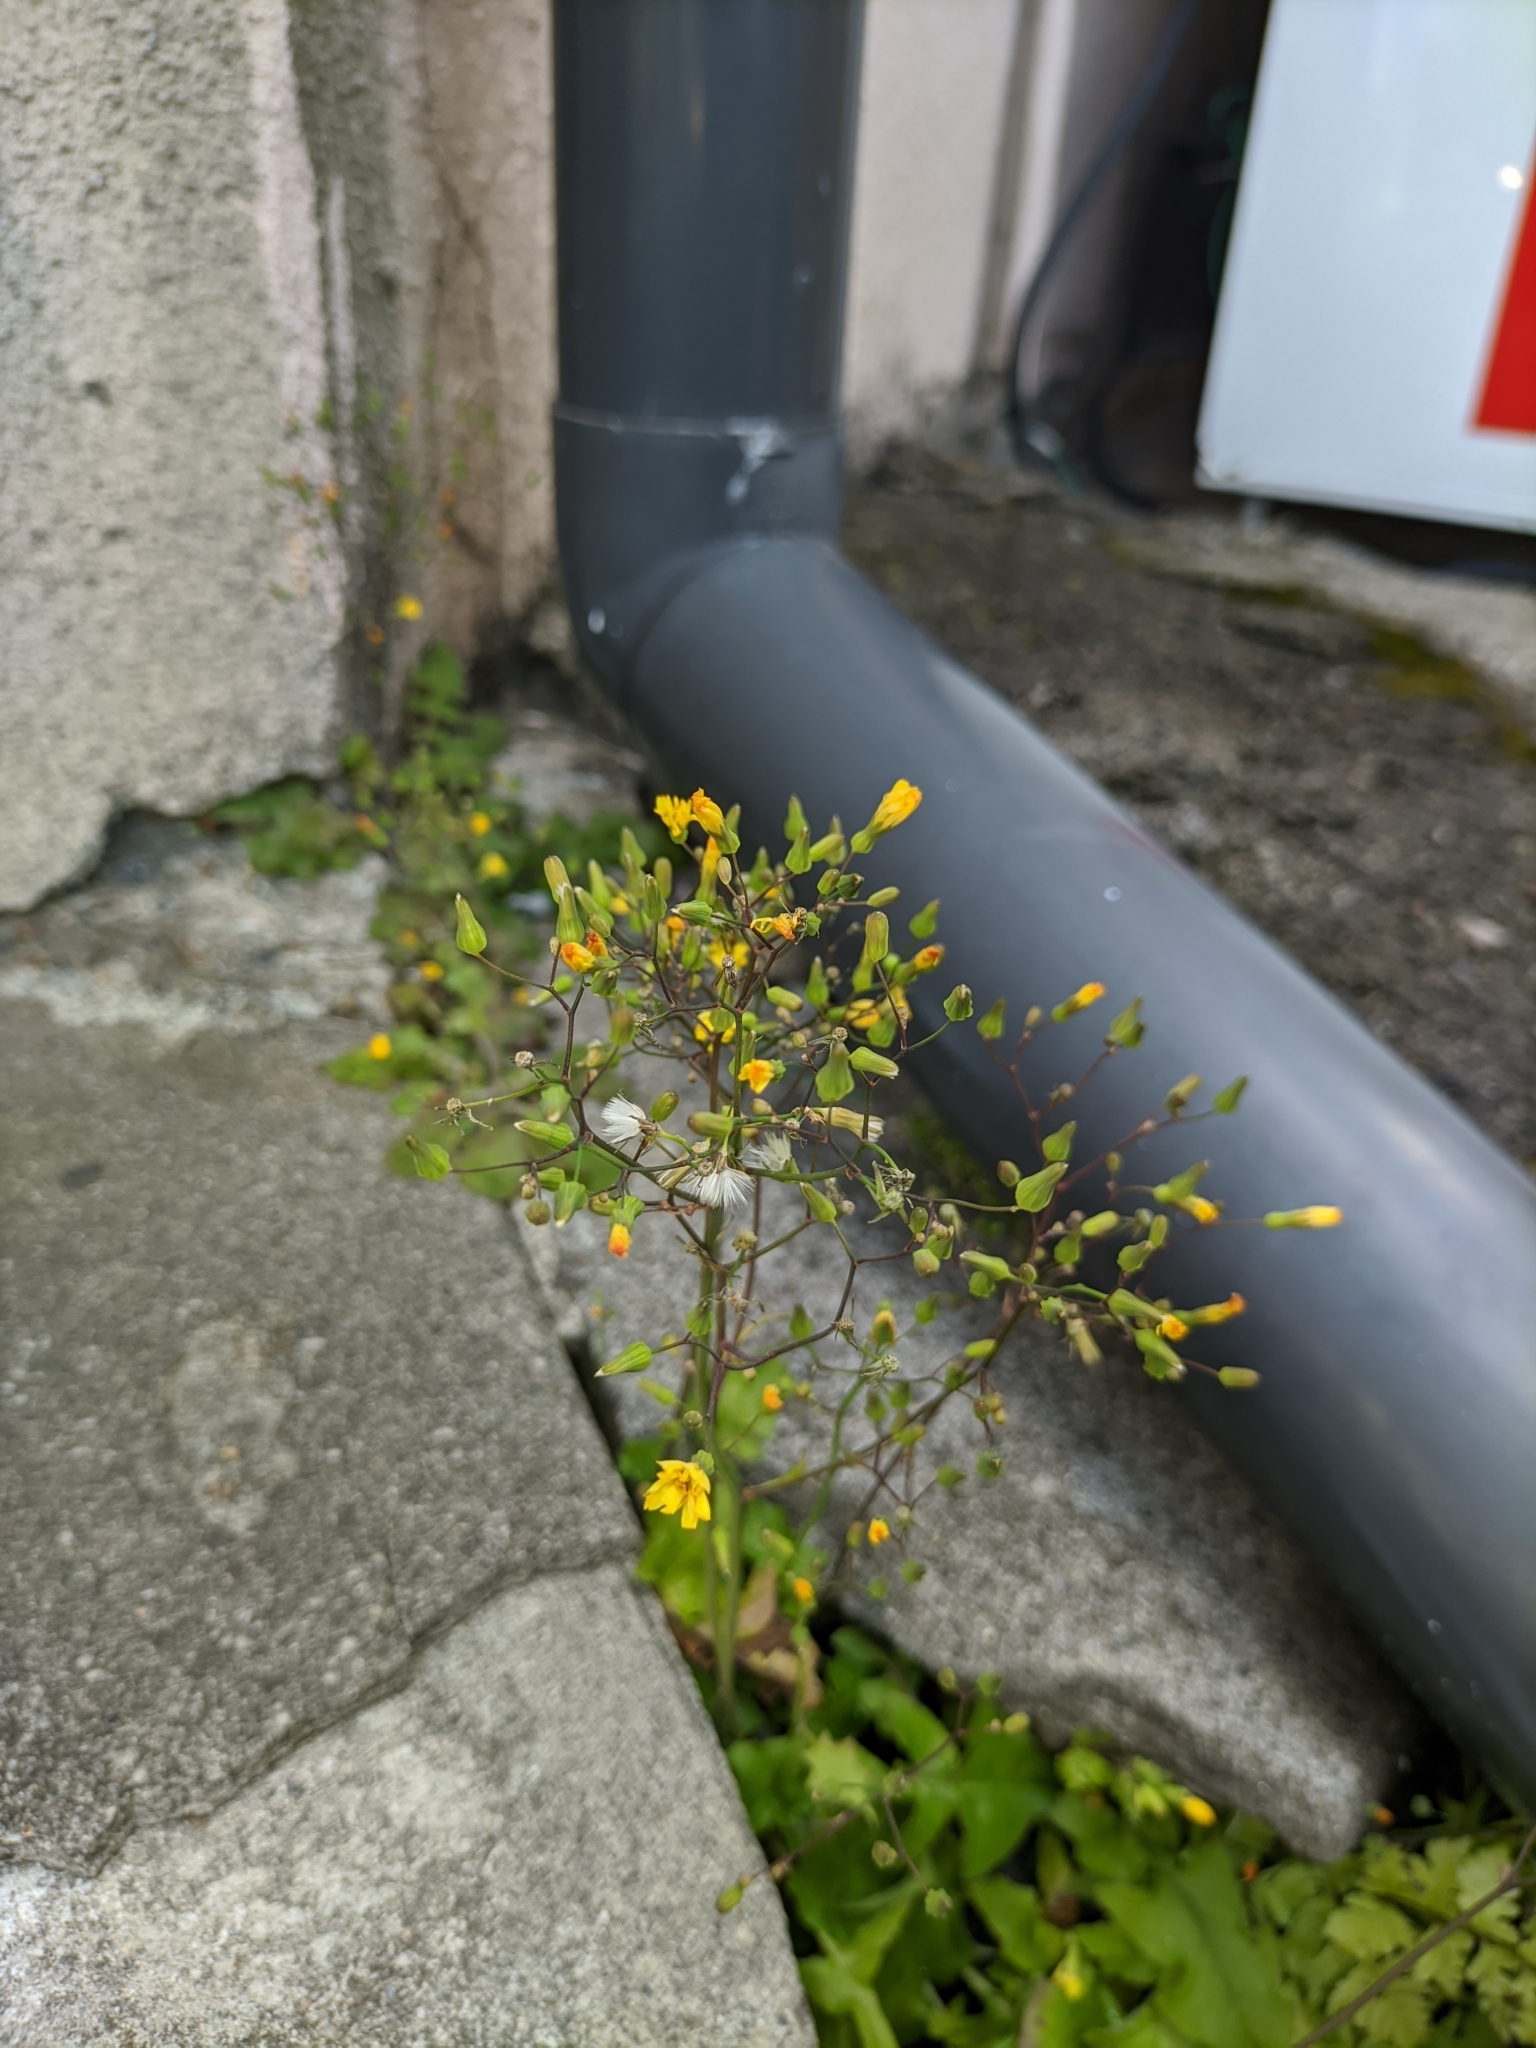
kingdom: Plantae
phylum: Tracheophyta
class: Magnoliopsida
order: Asterales
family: Asteraceae
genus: Youngia
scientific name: Youngia japonica
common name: Oriental false hawksbeard
